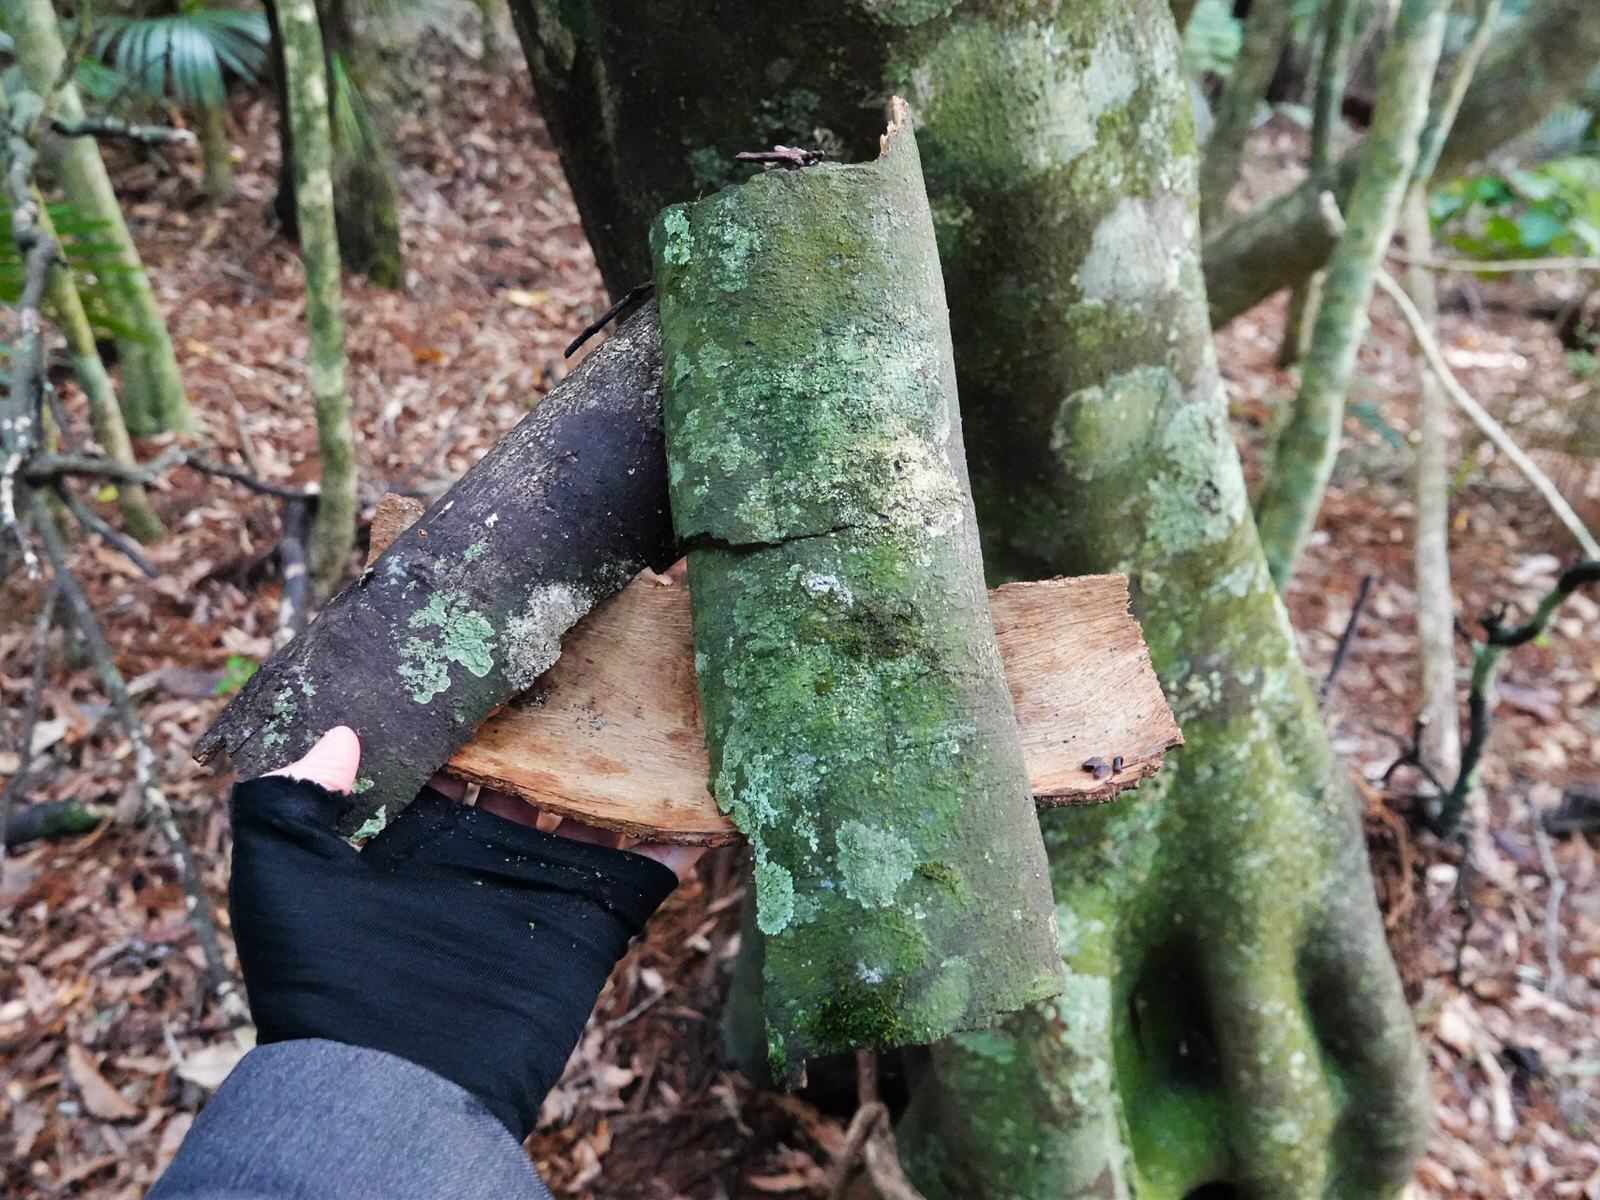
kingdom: Animalia
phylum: Chordata
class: Aves
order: Psittaciformes
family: Psittacidae
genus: Nestor
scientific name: Nestor meridionalis
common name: New zealand kaka
